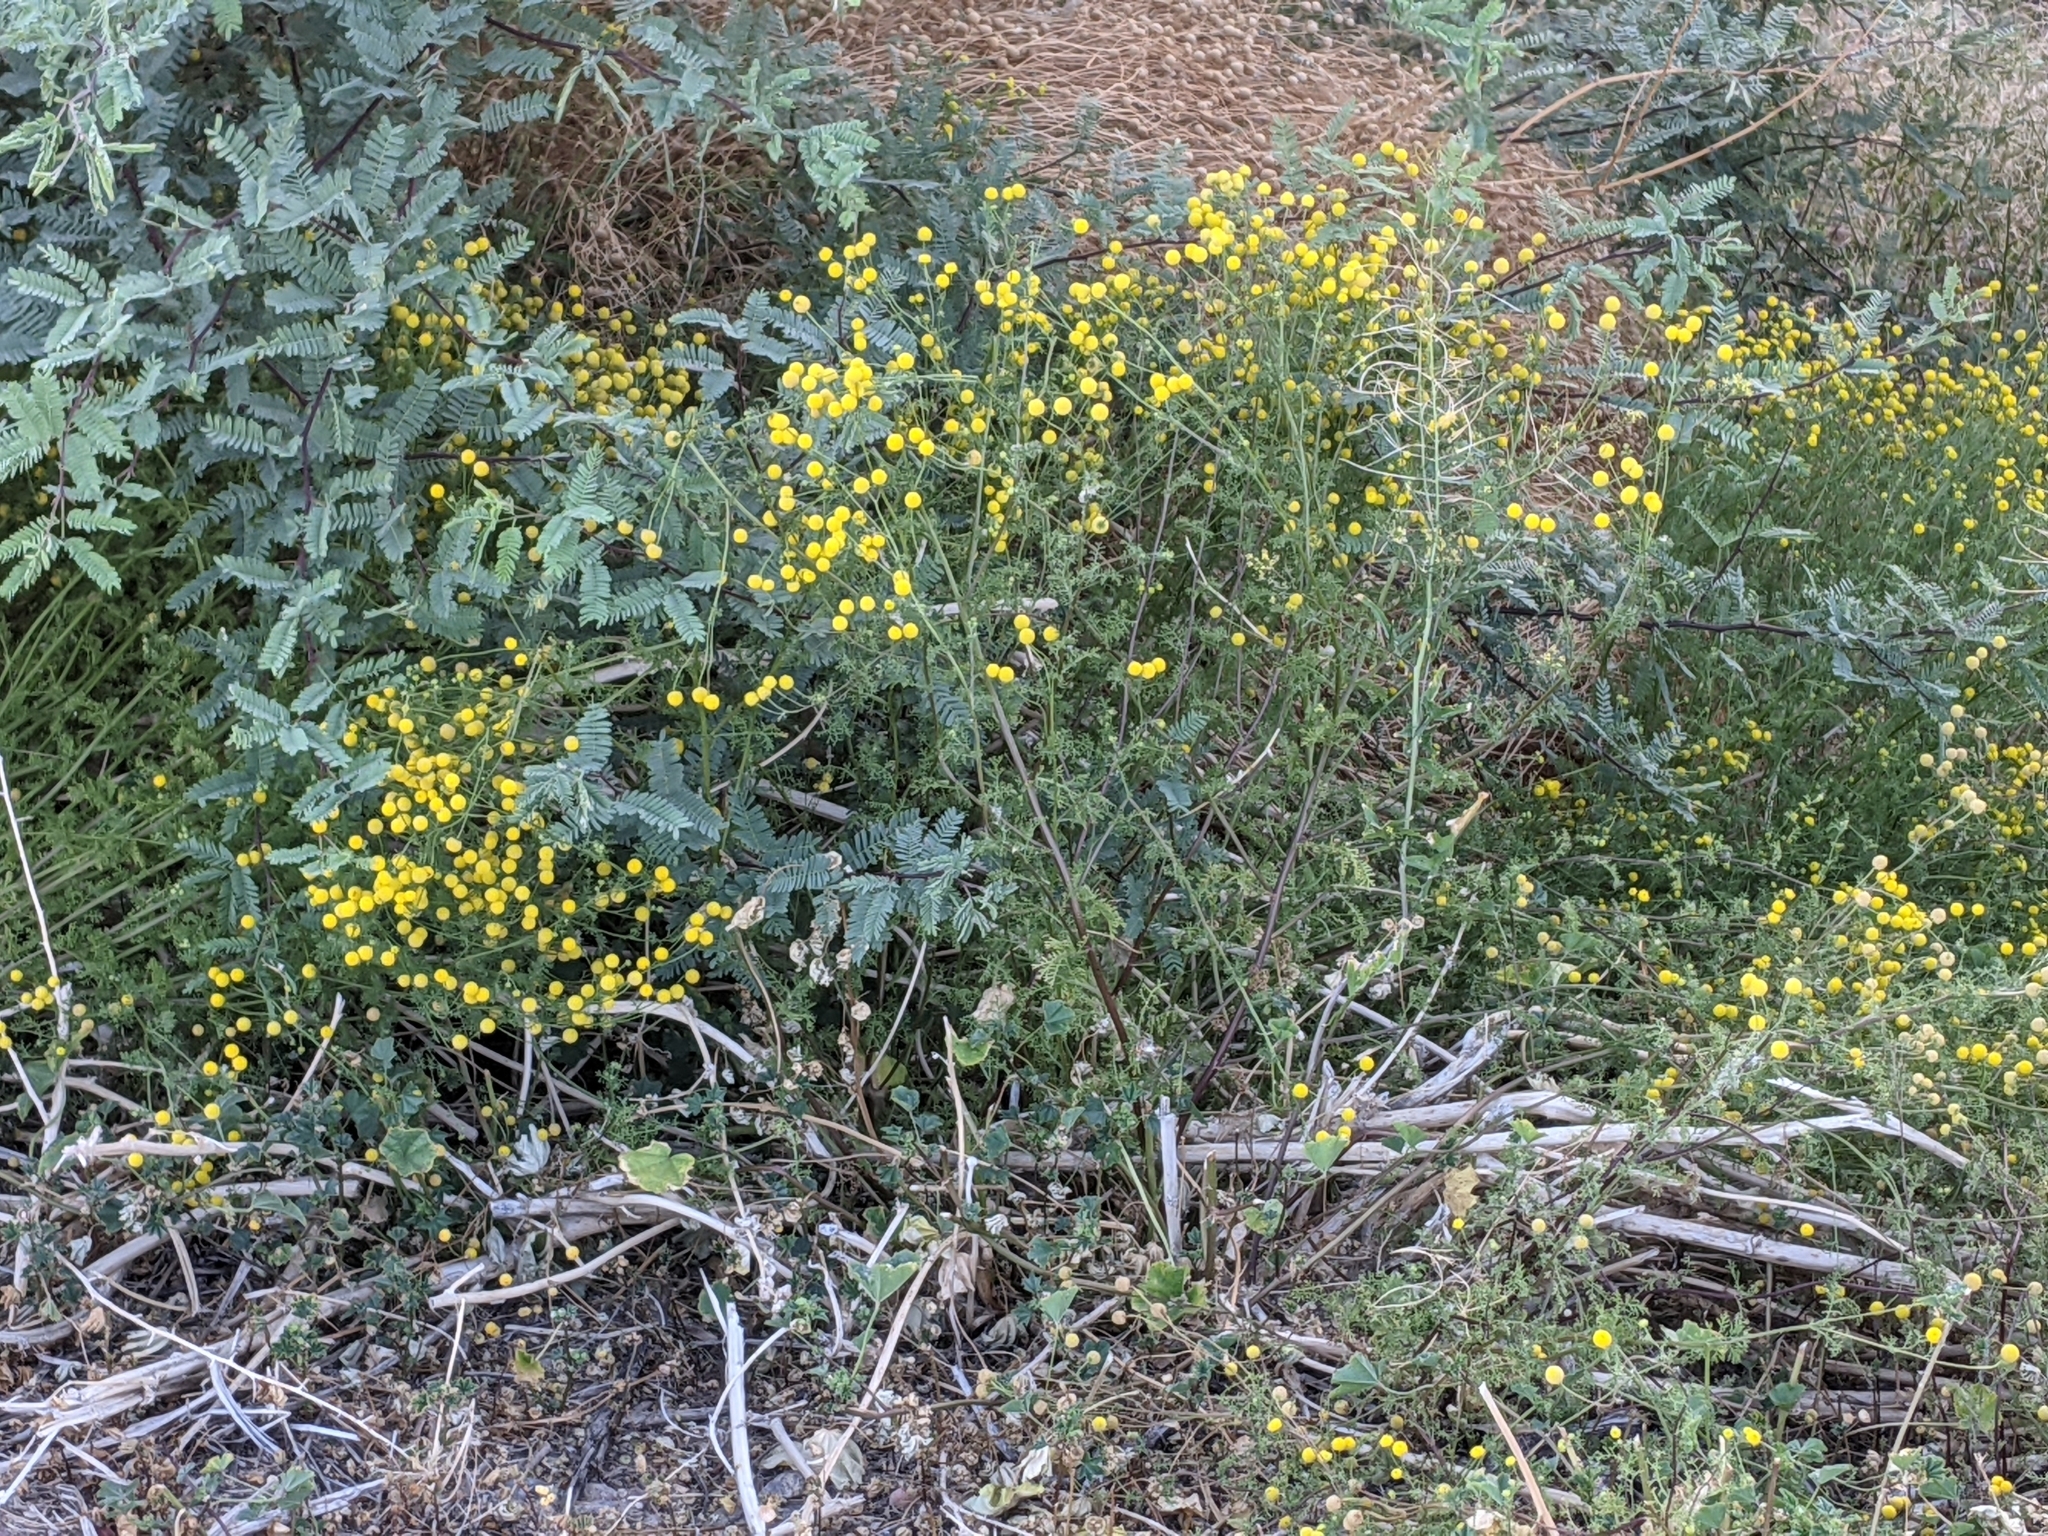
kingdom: Plantae
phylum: Tracheophyta
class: Magnoliopsida
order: Asterales
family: Asteraceae
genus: Oncosiphon
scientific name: Oncosiphon pilulifer
